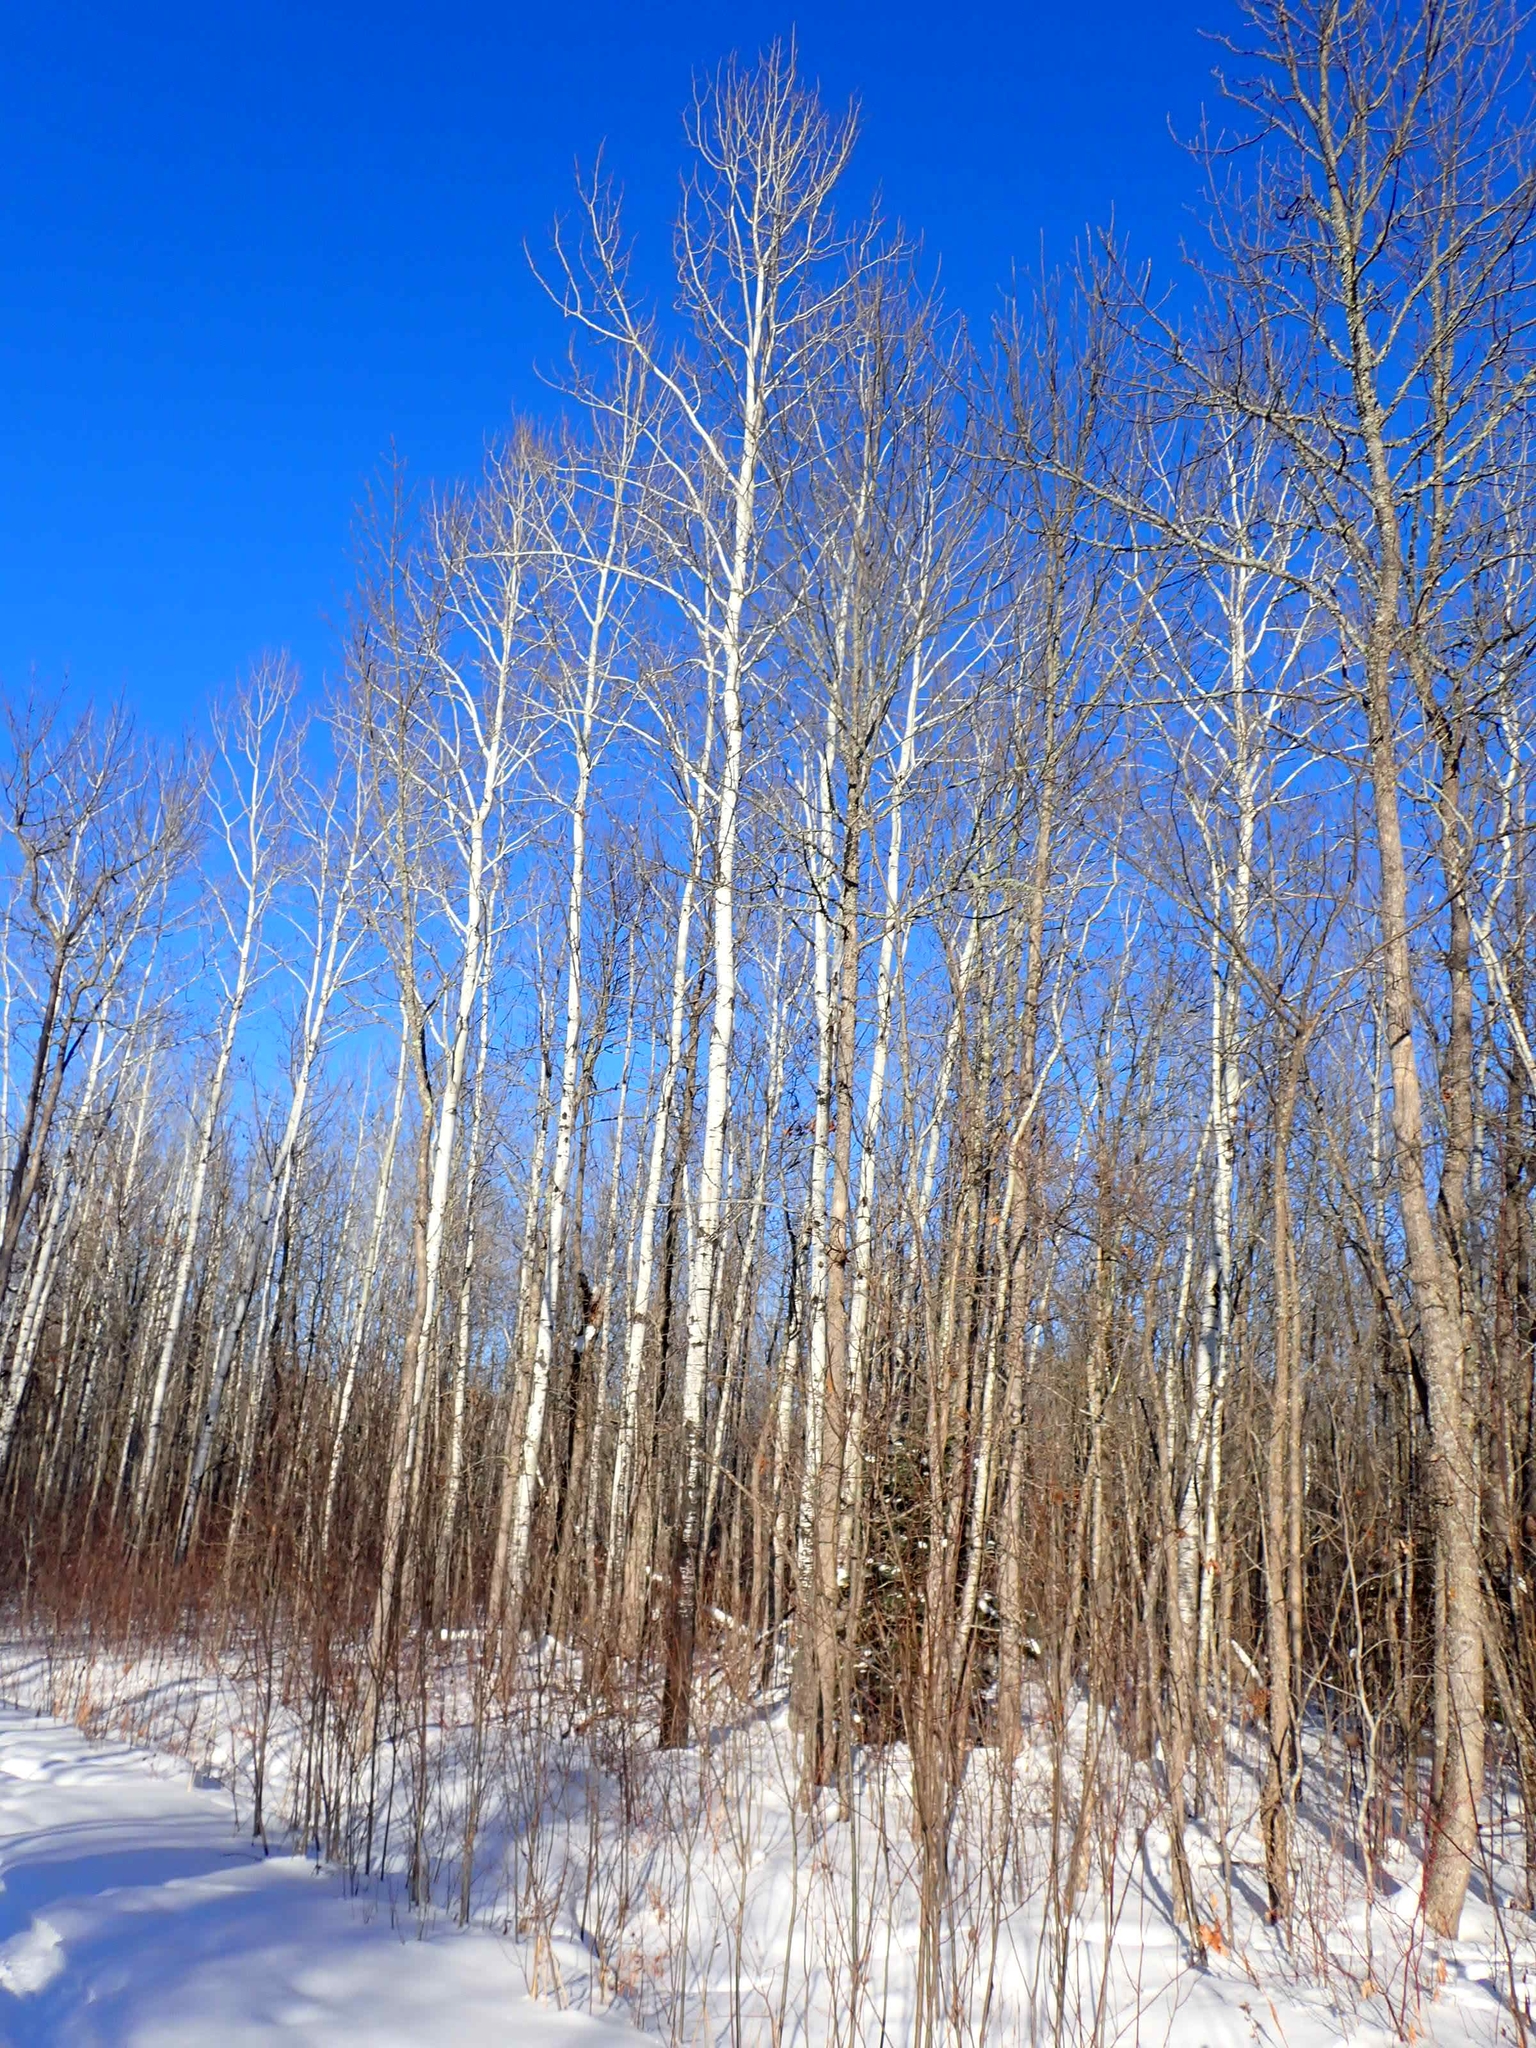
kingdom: Plantae
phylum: Tracheophyta
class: Magnoliopsida
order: Malpighiales
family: Salicaceae
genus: Populus
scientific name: Populus tremuloides
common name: Quaking aspen
